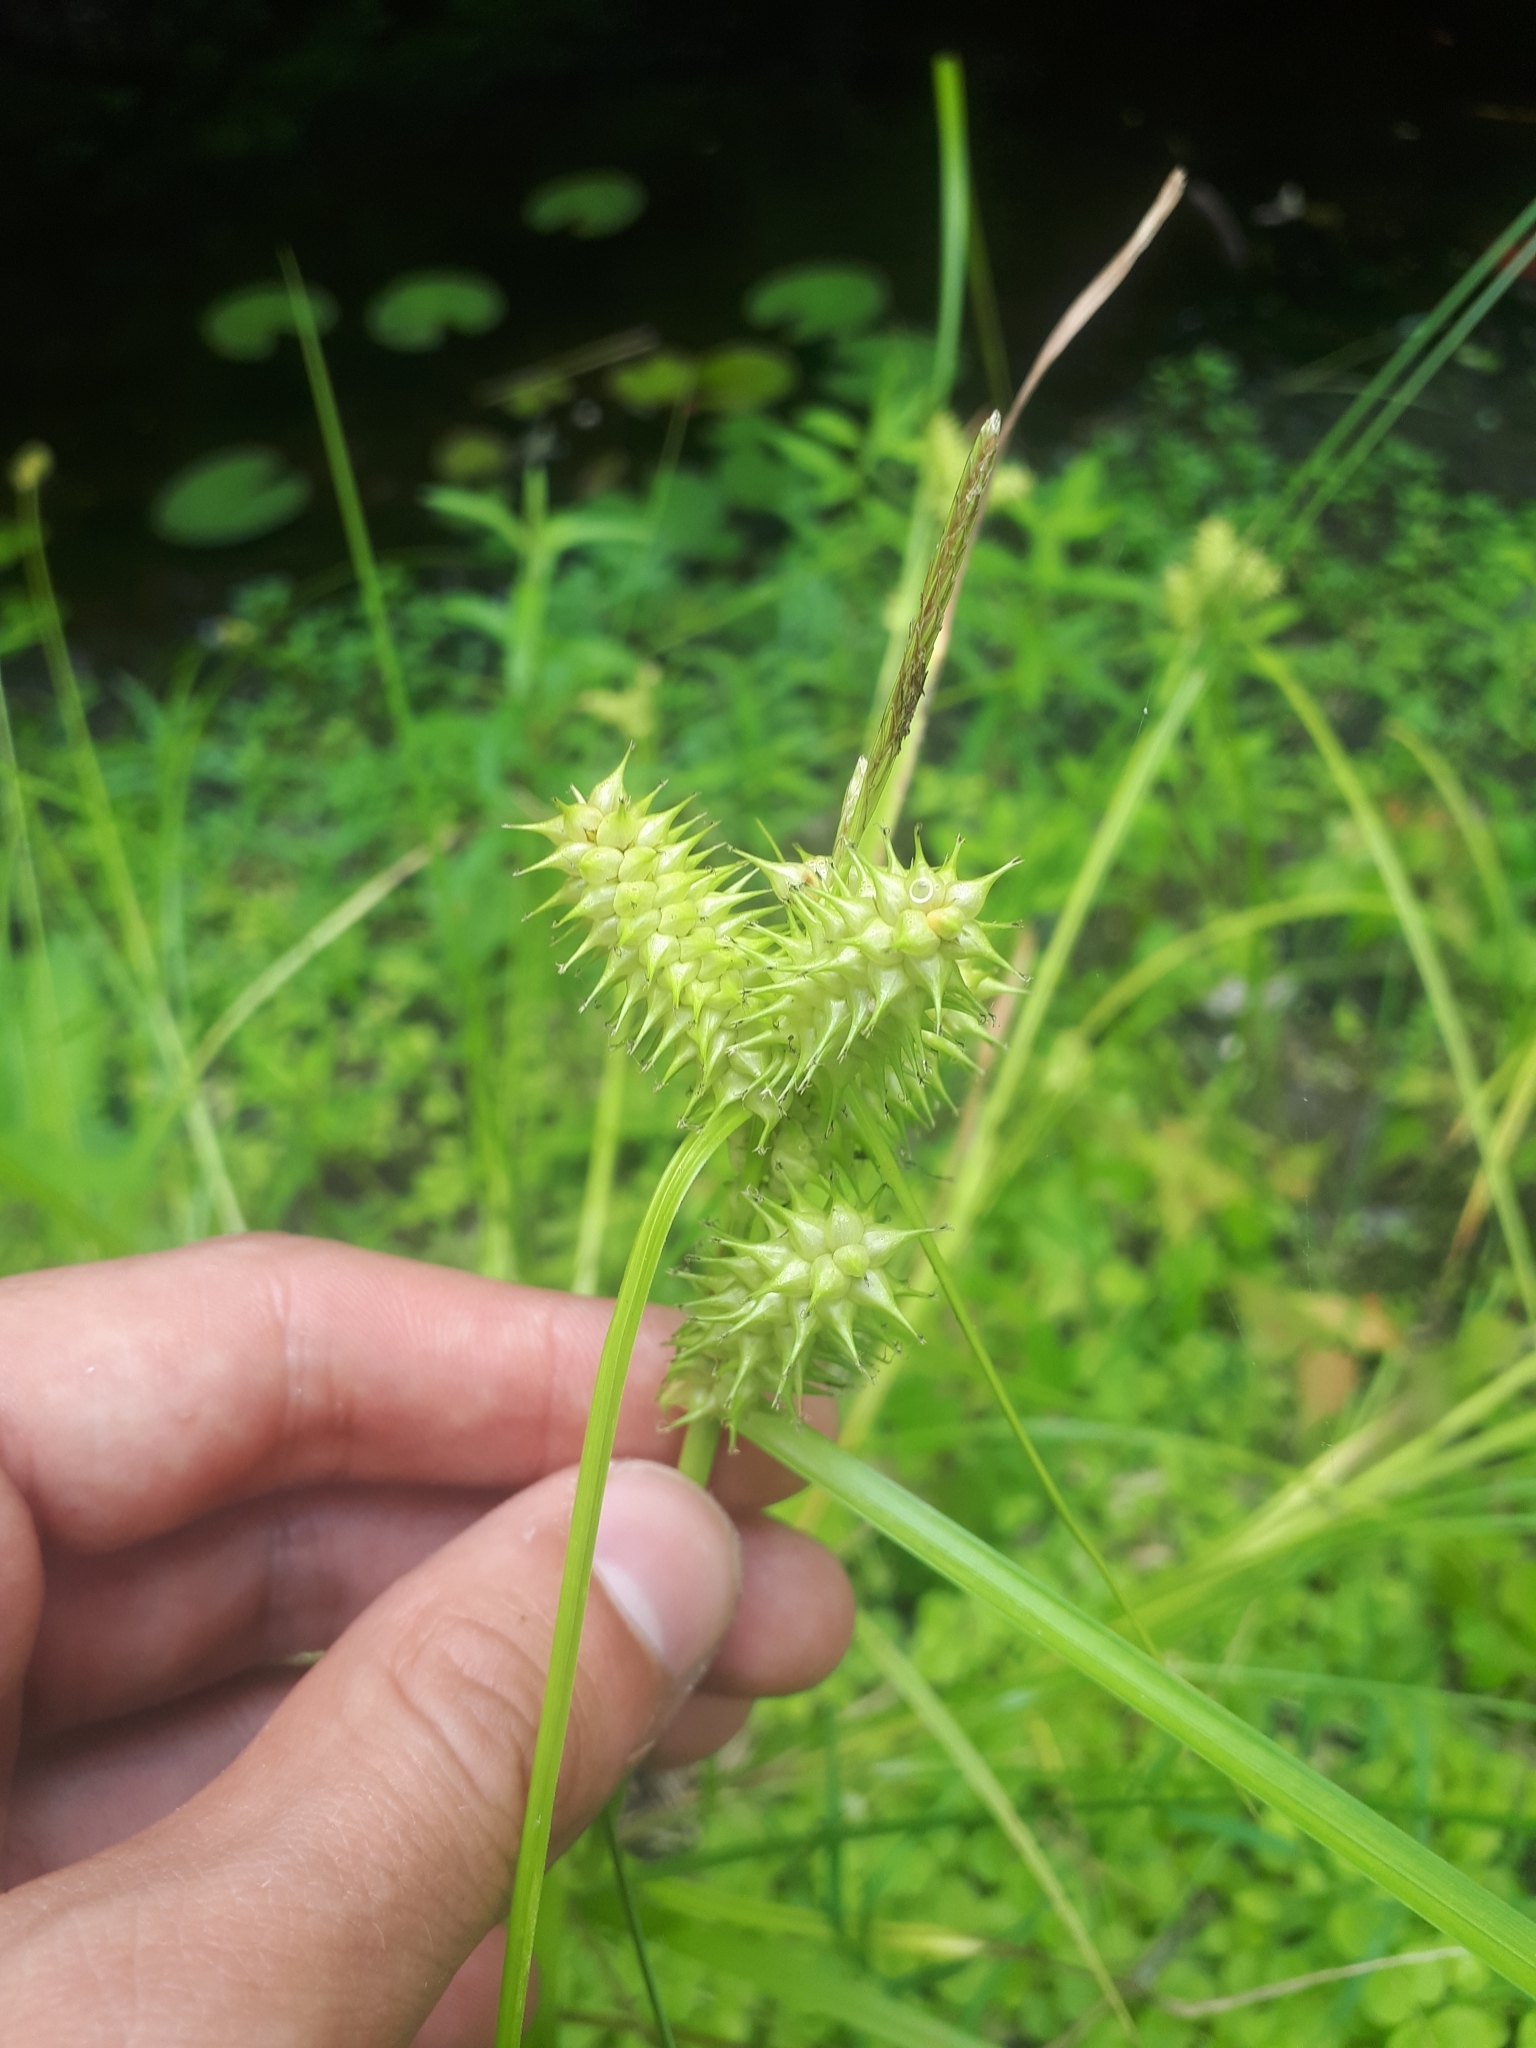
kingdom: Plantae
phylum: Tracheophyta
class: Liliopsida
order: Poales
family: Cyperaceae
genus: Carex
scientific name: Carex retrorsa
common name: Knot-sheath sedge
